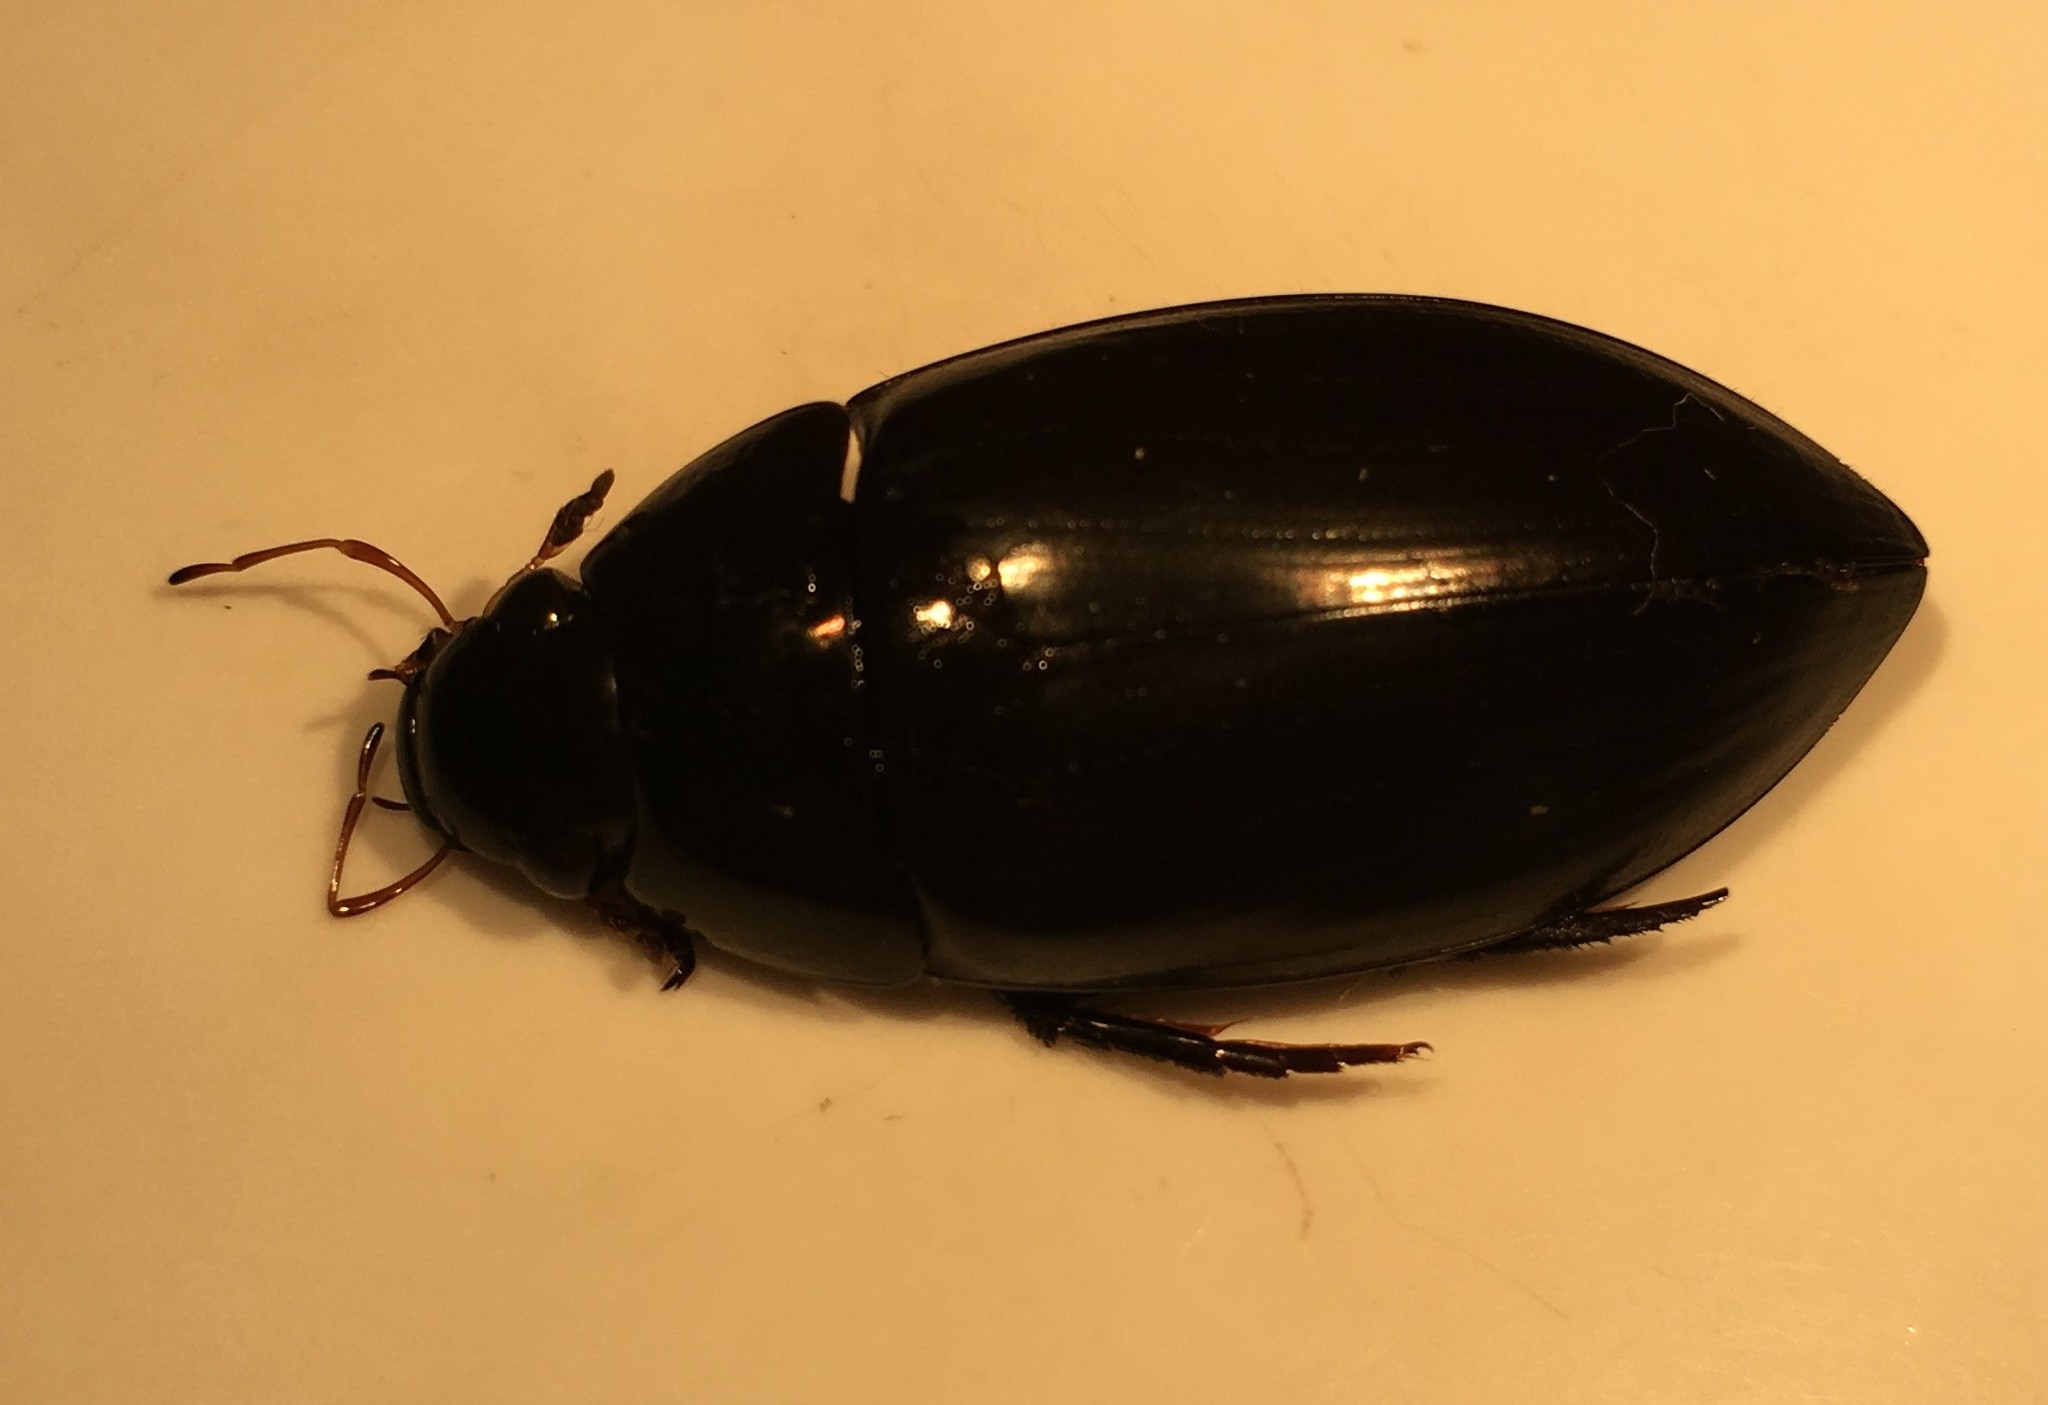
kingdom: Animalia
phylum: Arthropoda
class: Insecta
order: Coleoptera
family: Hydrophilidae
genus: Hydrophilus
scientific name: Hydrophilus ensifer
